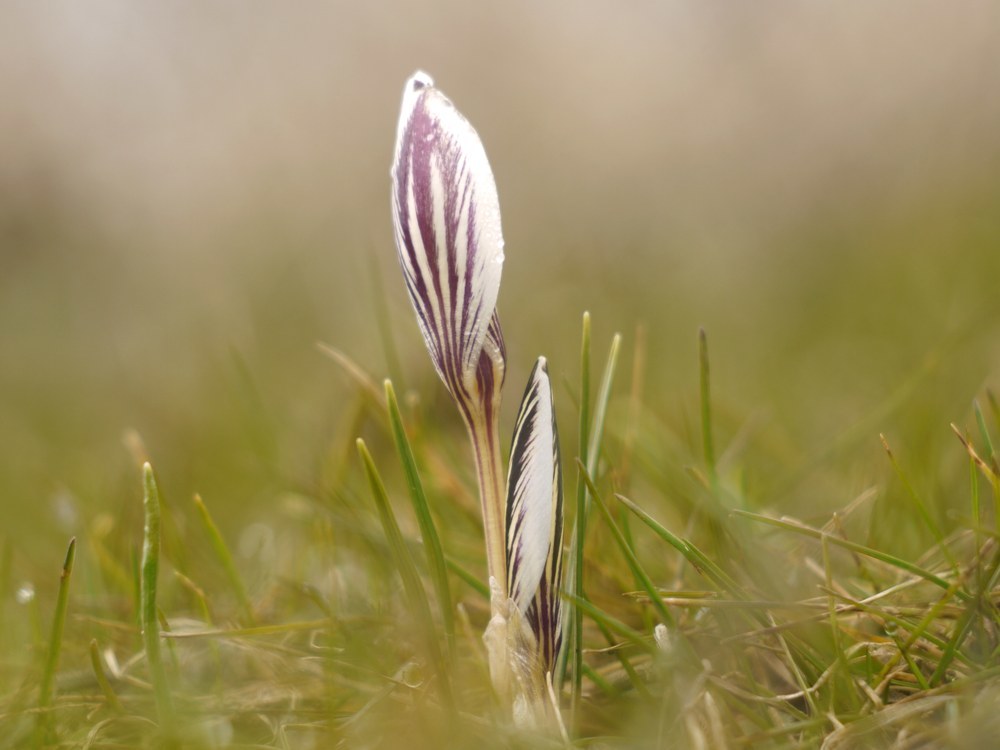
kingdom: Plantae
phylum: Tracheophyta
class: Liliopsida
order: Asparagales
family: Iridaceae
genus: Crocus
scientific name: Crocus reticulatus
